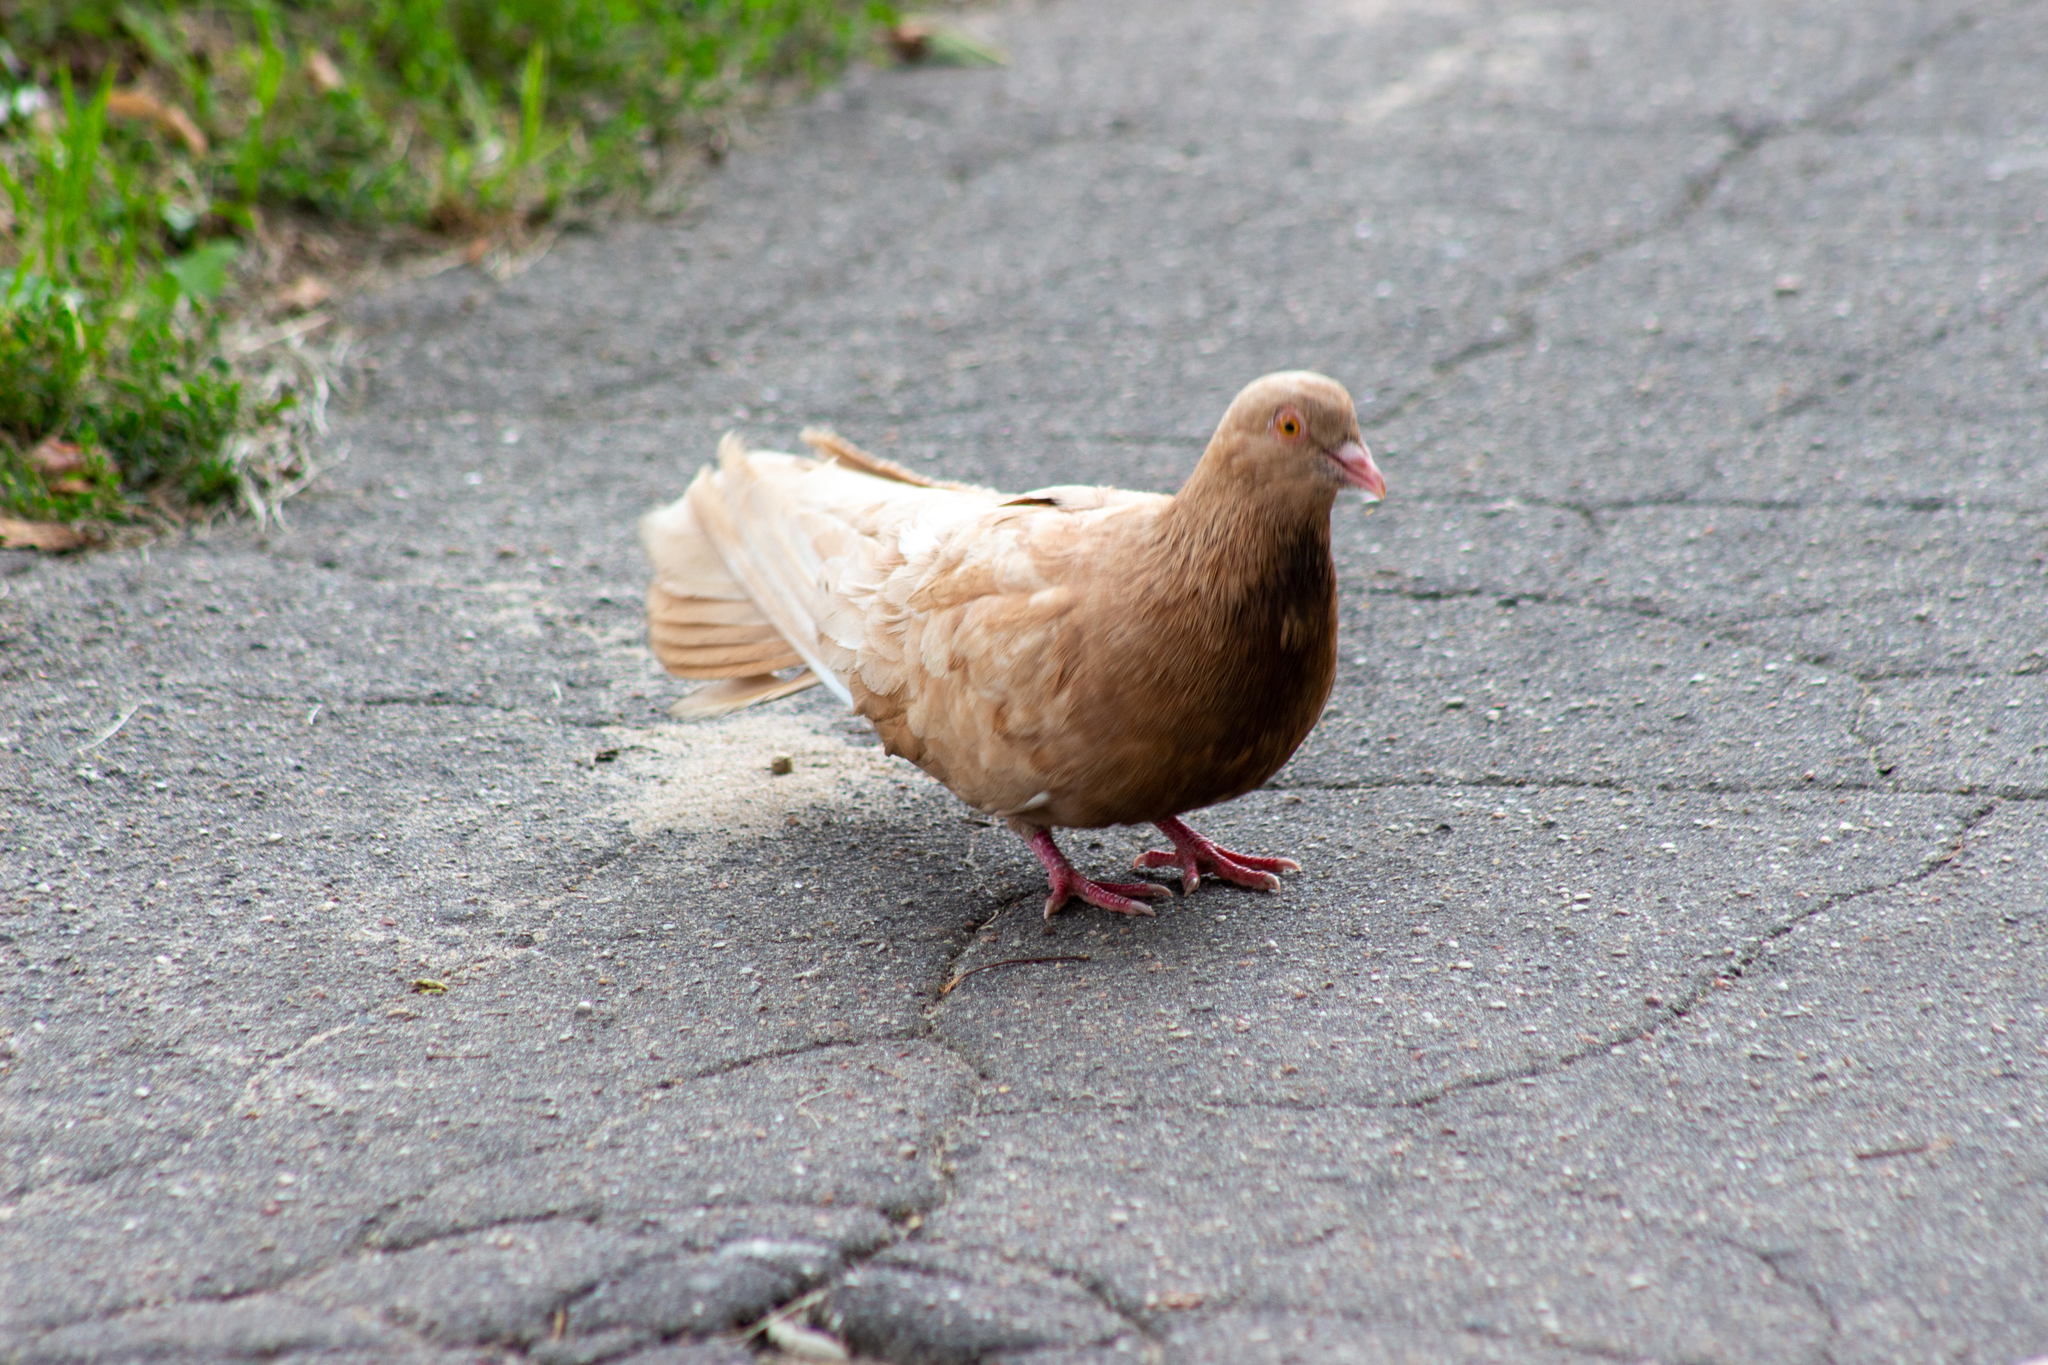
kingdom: Animalia
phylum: Chordata
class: Aves
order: Columbiformes
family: Columbidae
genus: Columba
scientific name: Columba livia
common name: Rock pigeon
